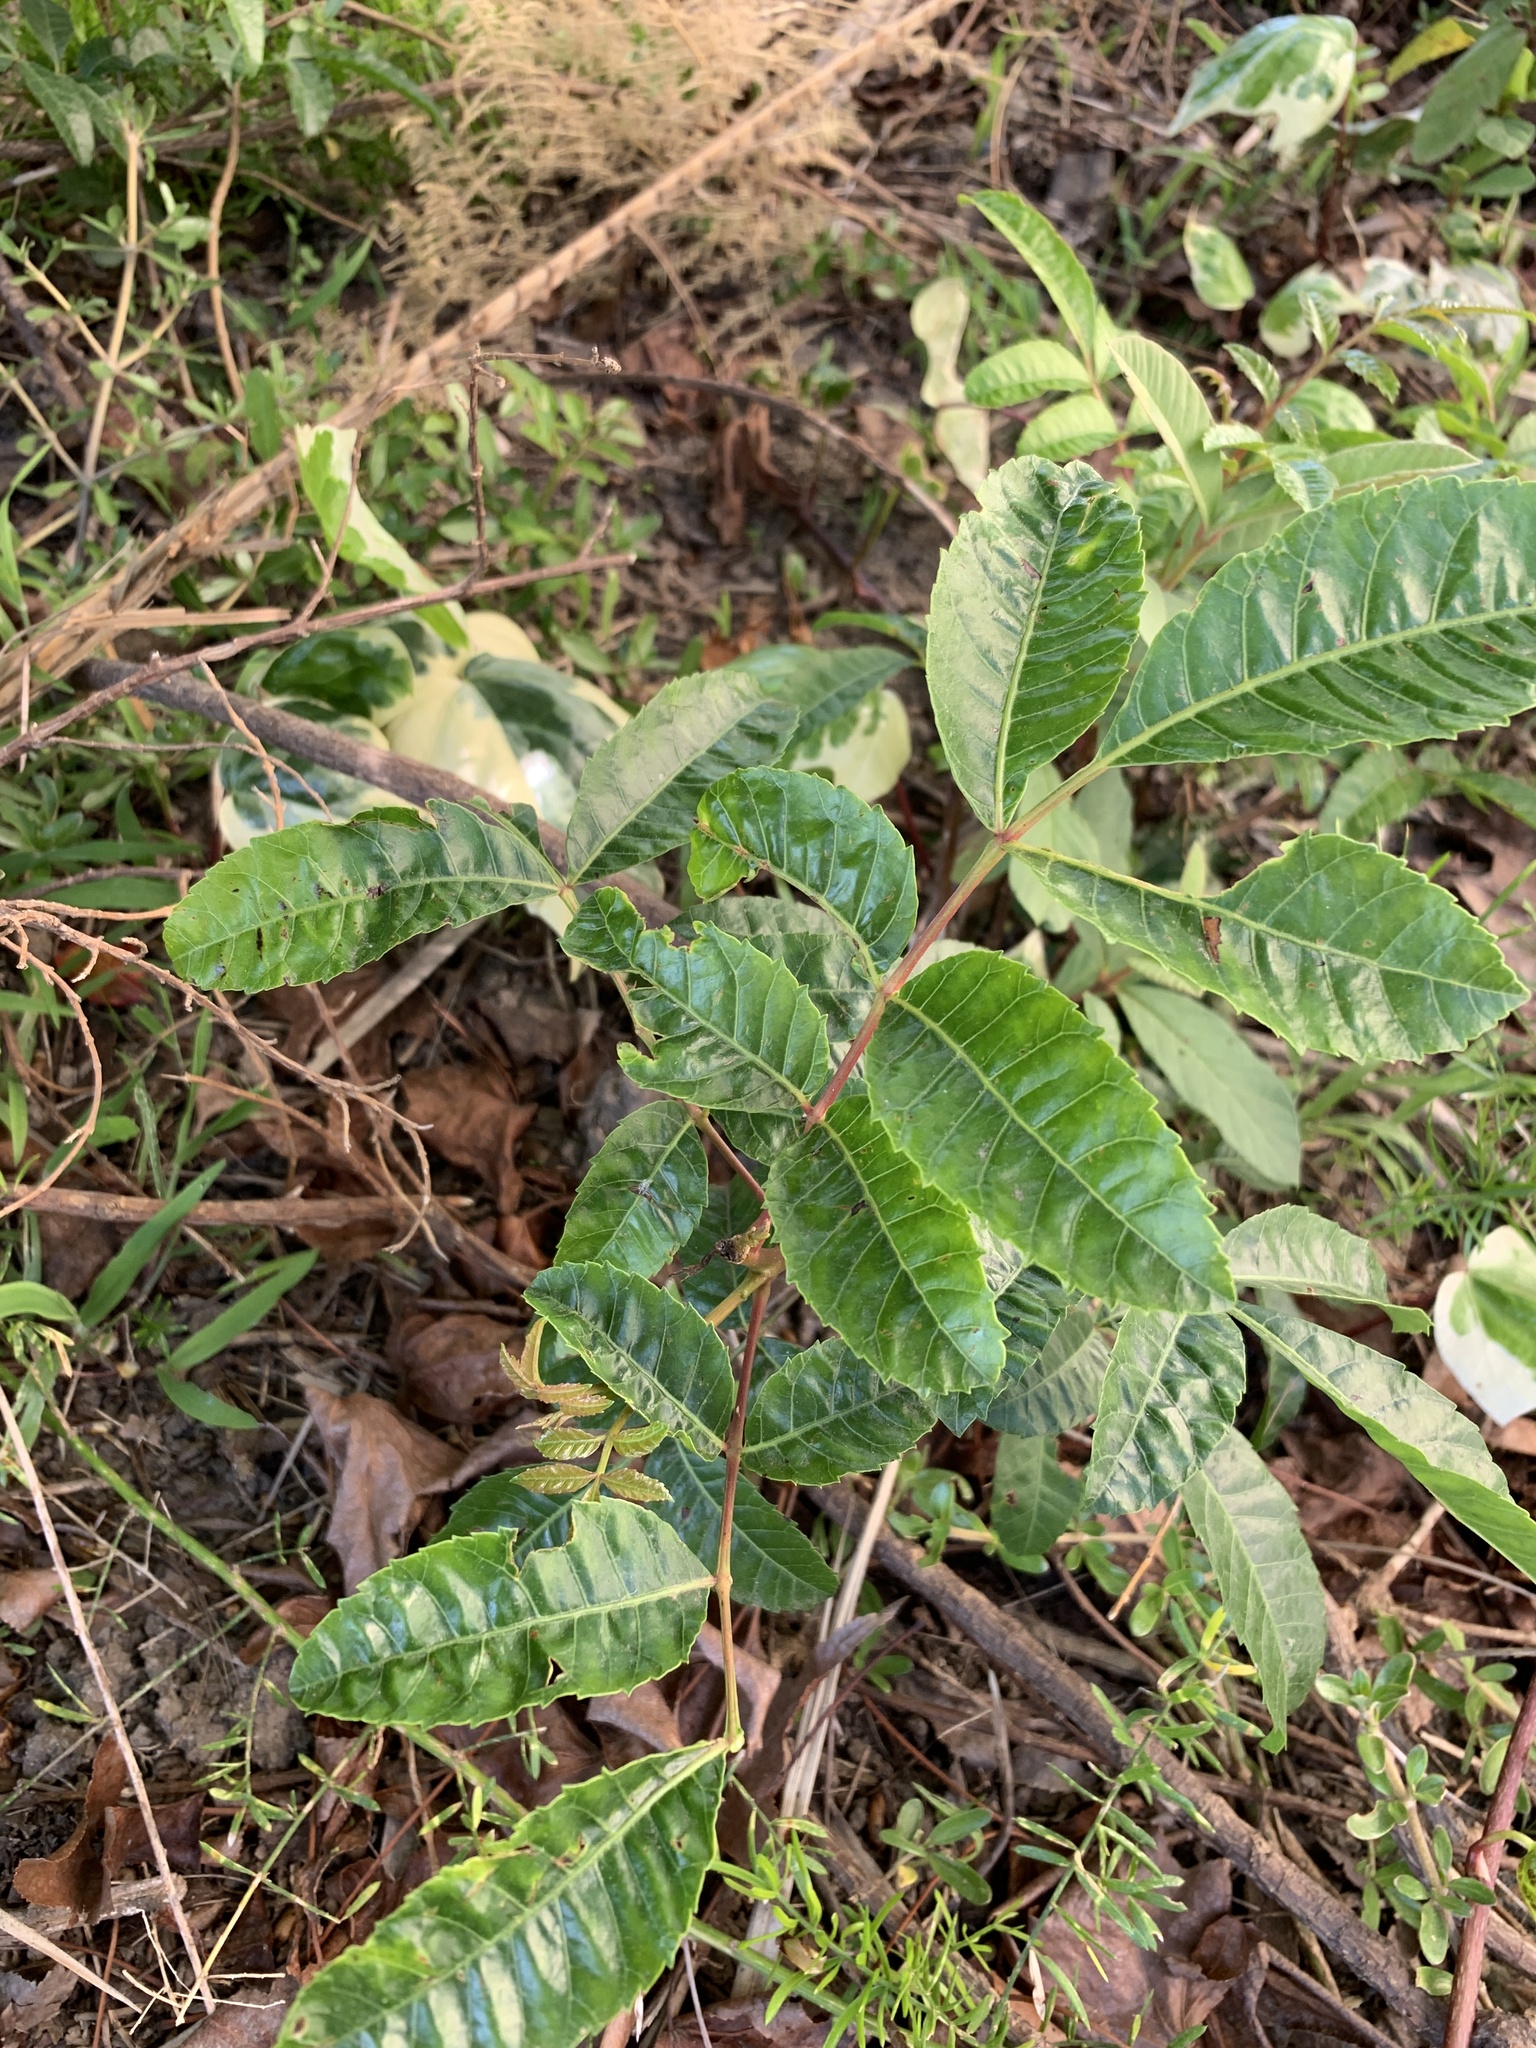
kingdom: Plantae
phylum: Tracheophyta
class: Magnoliopsida
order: Sapindales
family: Anacardiaceae
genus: Schinus
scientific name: Schinus terebinthifolia
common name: Brazilian peppertree
